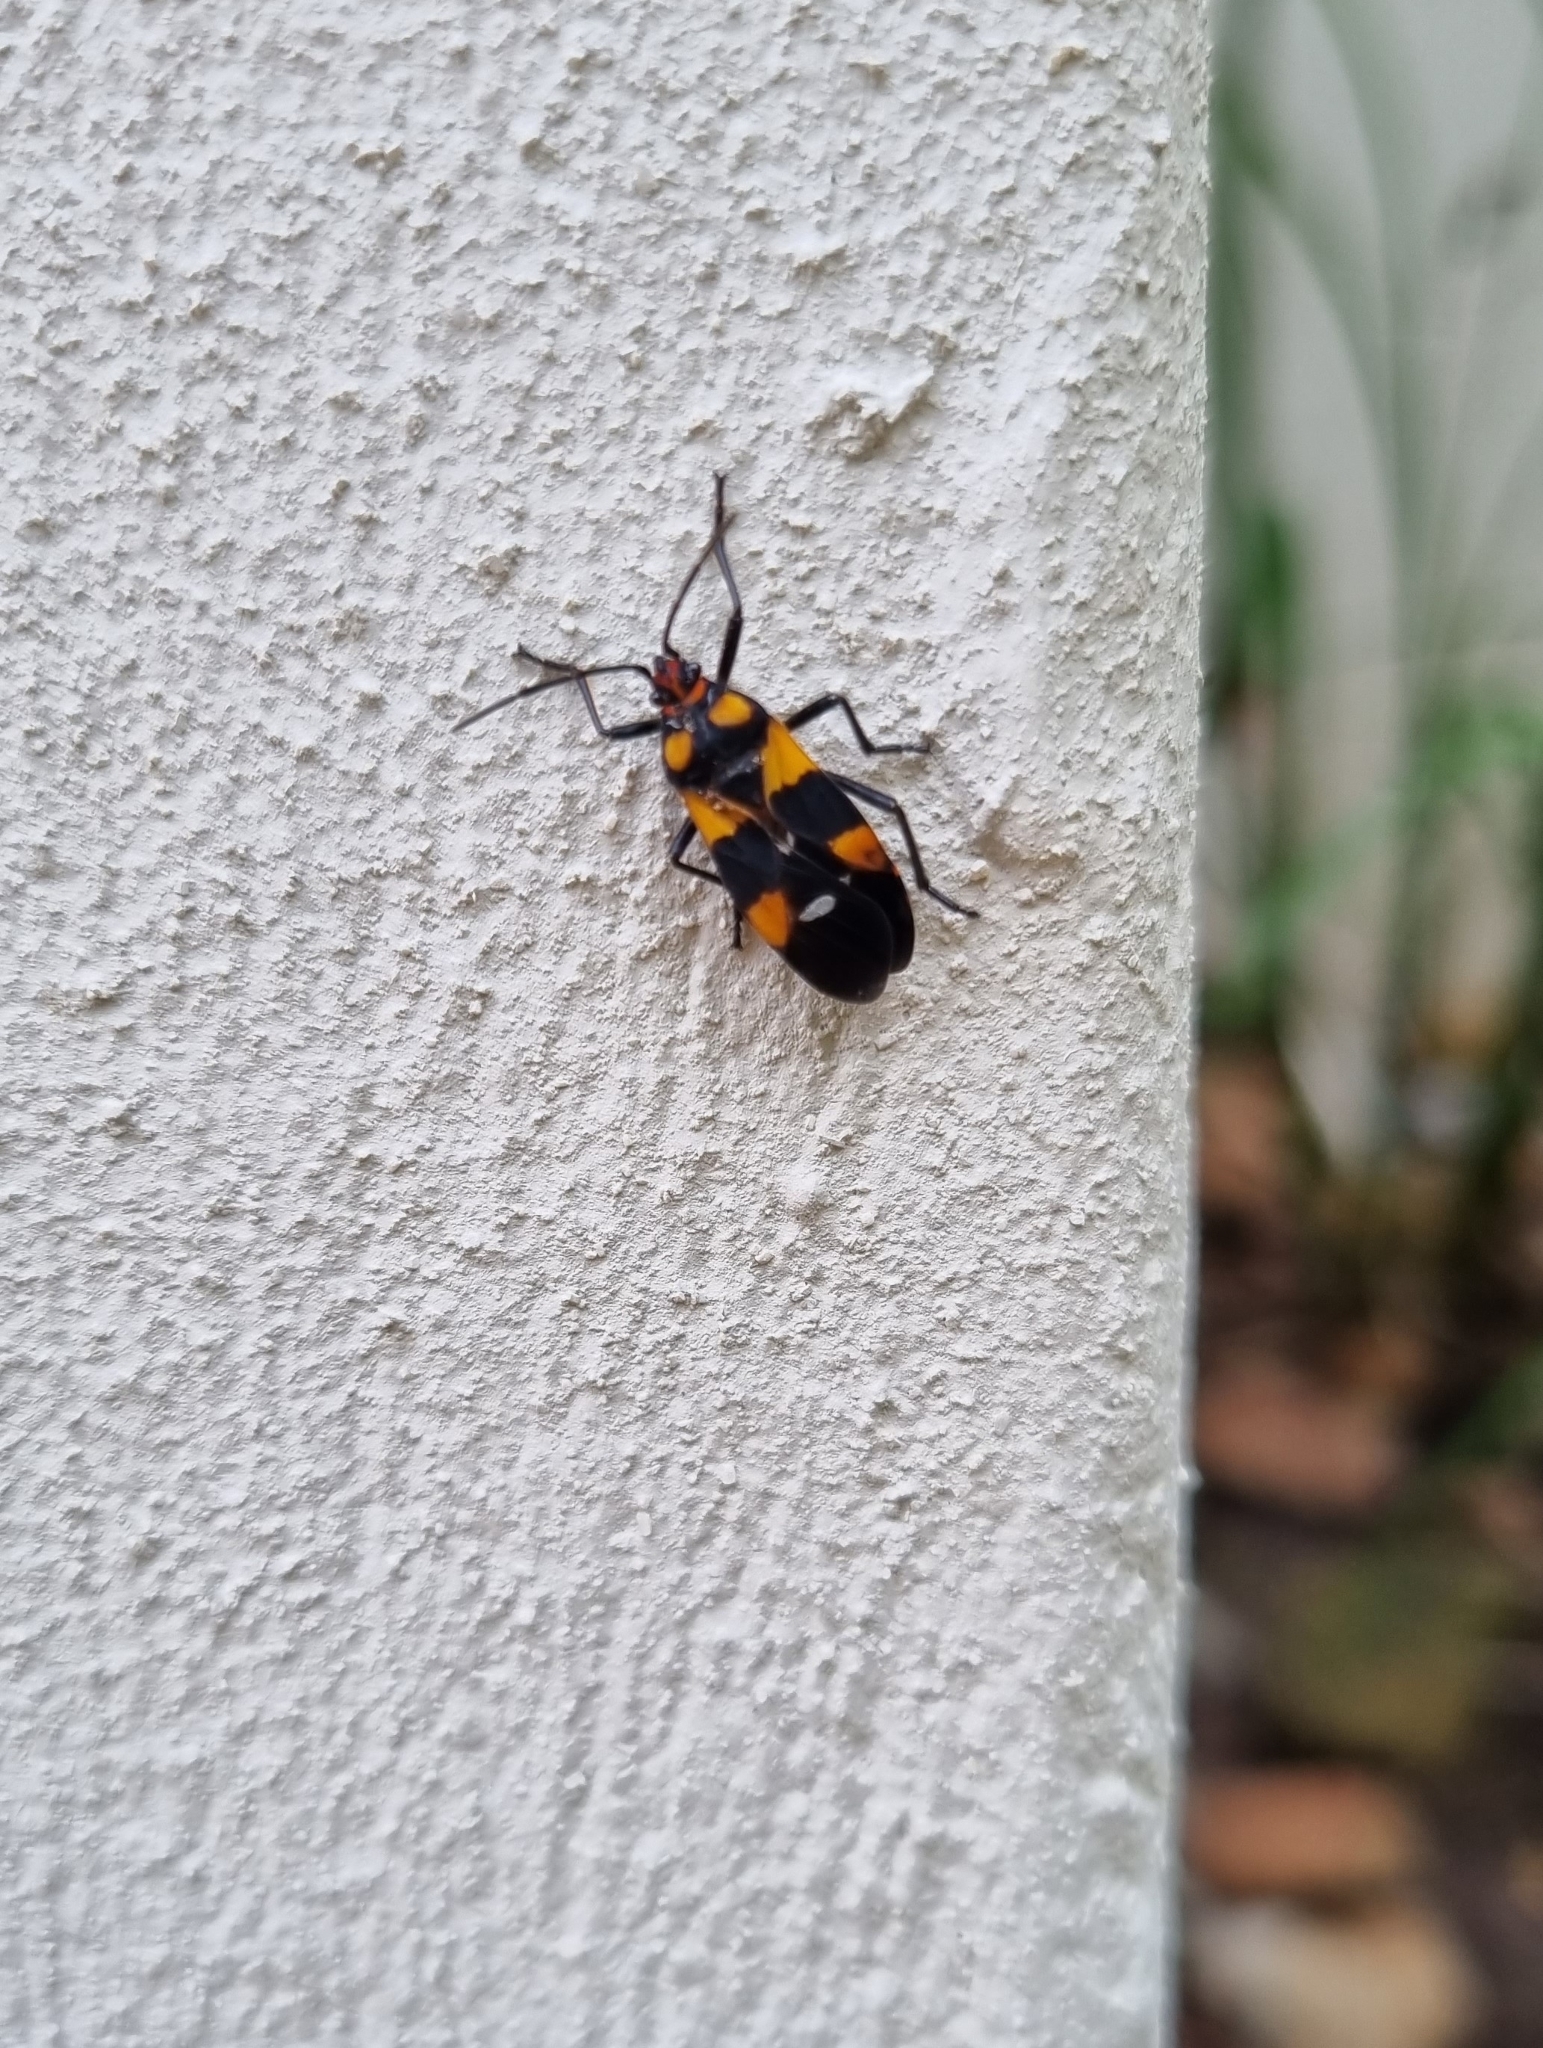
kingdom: Animalia
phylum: Arthropoda
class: Insecta
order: Hemiptera
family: Lygaeidae
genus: Oncopeltus
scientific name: Oncopeltus famelicus
